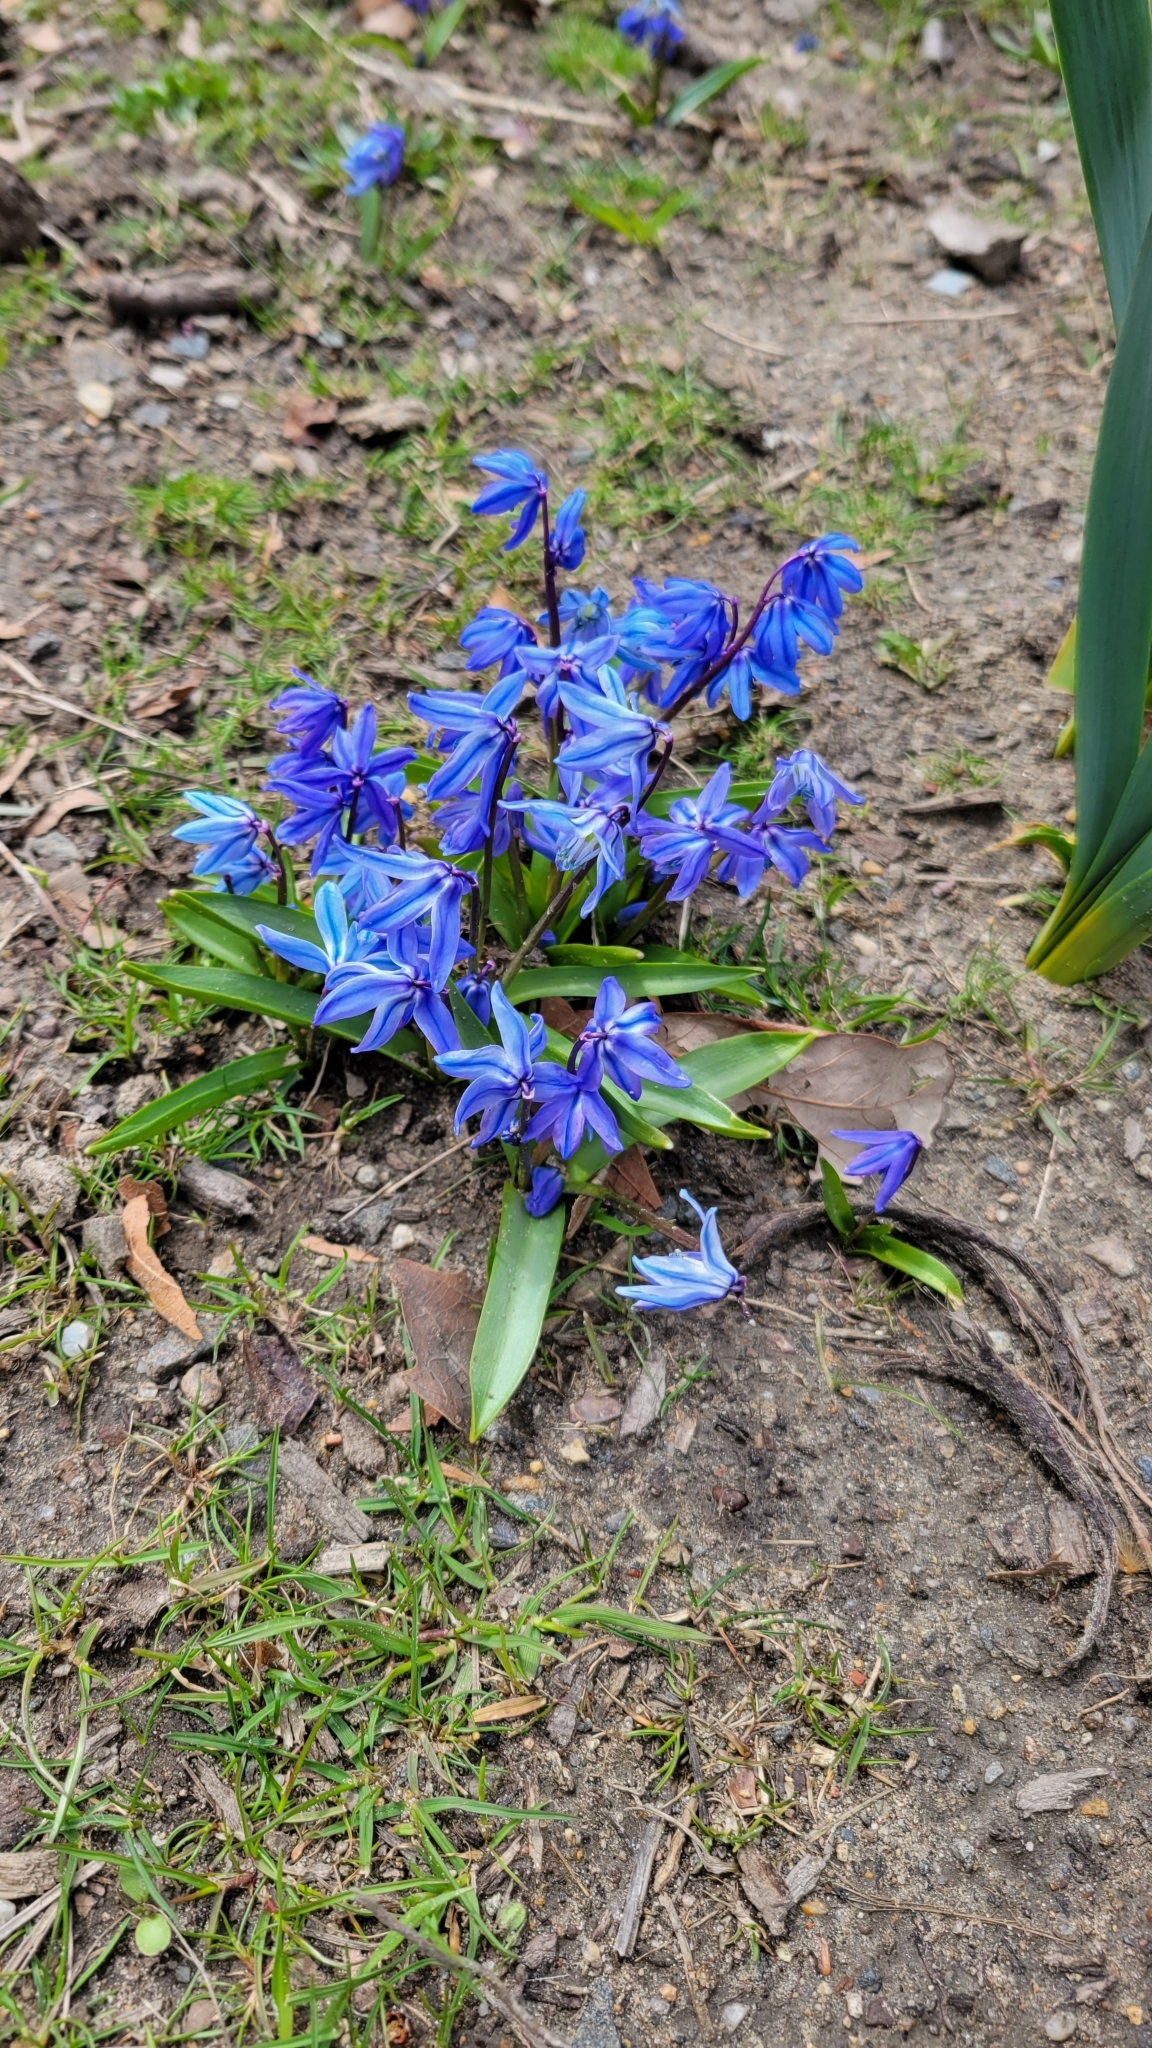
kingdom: Plantae
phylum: Tracheophyta
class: Liliopsida
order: Asparagales
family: Asparagaceae
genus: Scilla
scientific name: Scilla siberica
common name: Siberian squill
